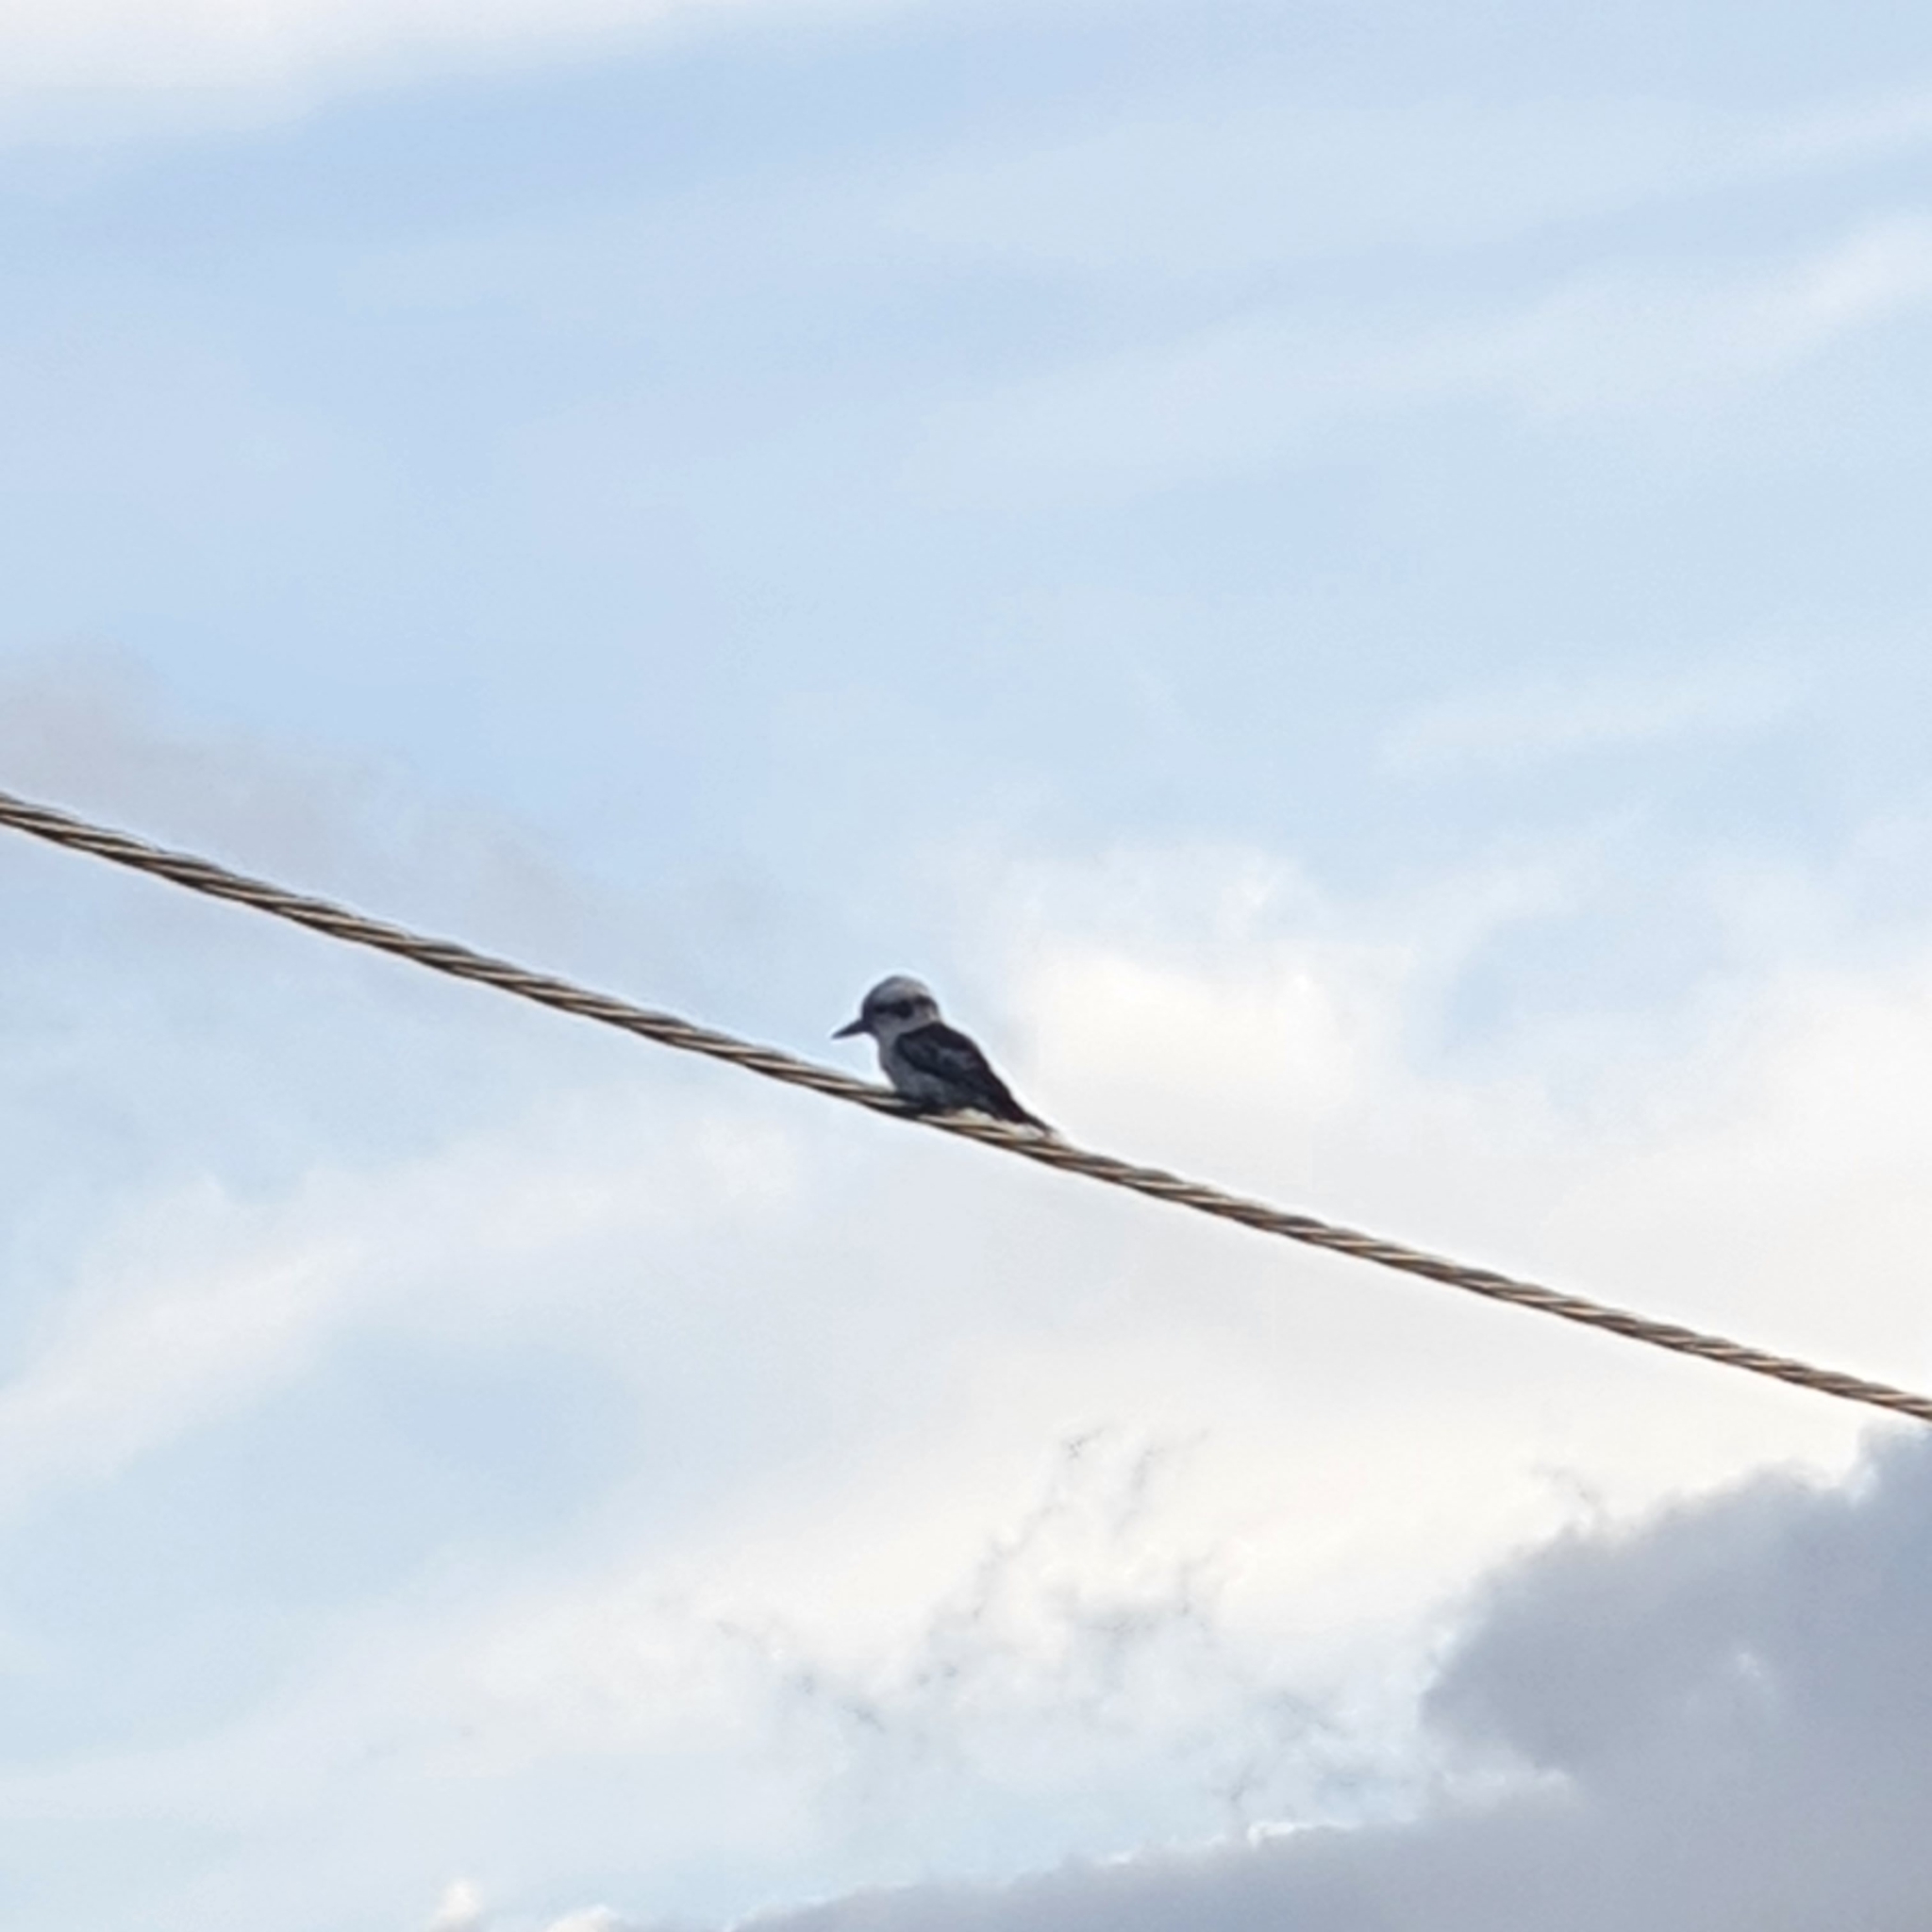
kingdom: Animalia
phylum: Chordata
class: Aves
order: Coraciiformes
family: Alcedinidae
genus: Dacelo
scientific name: Dacelo novaeguineae
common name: Laughing kookaburra
